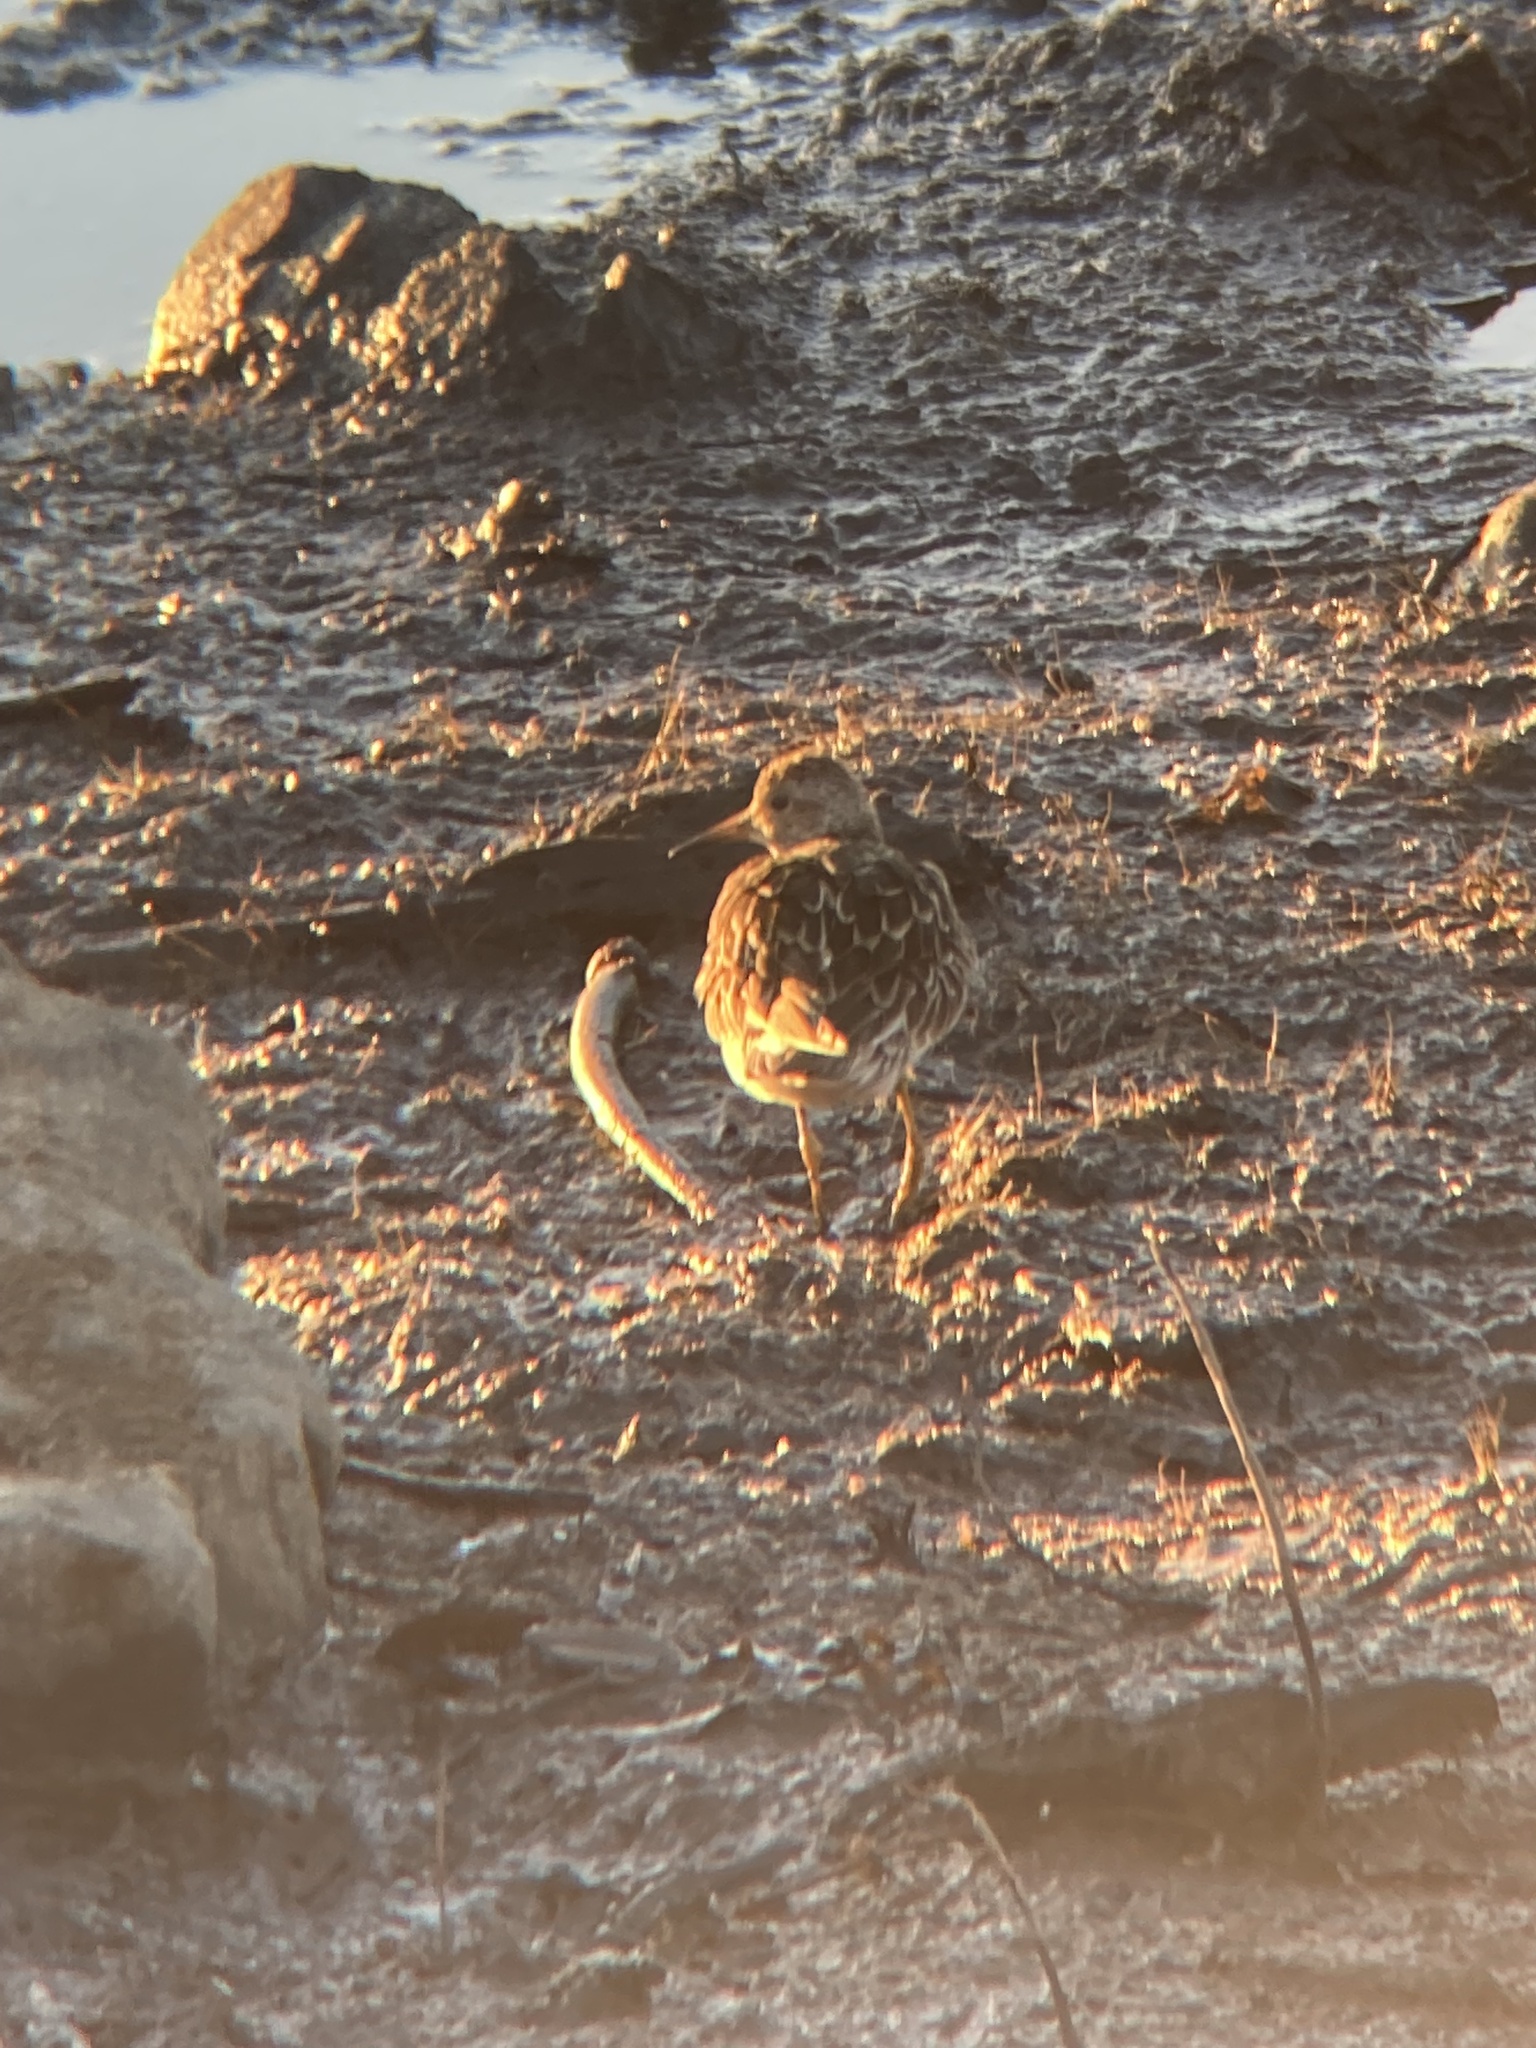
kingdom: Animalia
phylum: Chordata
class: Aves
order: Charadriiformes
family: Scolopacidae
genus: Calidris
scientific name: Calidris melanotos
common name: Pectoral sandpiper
